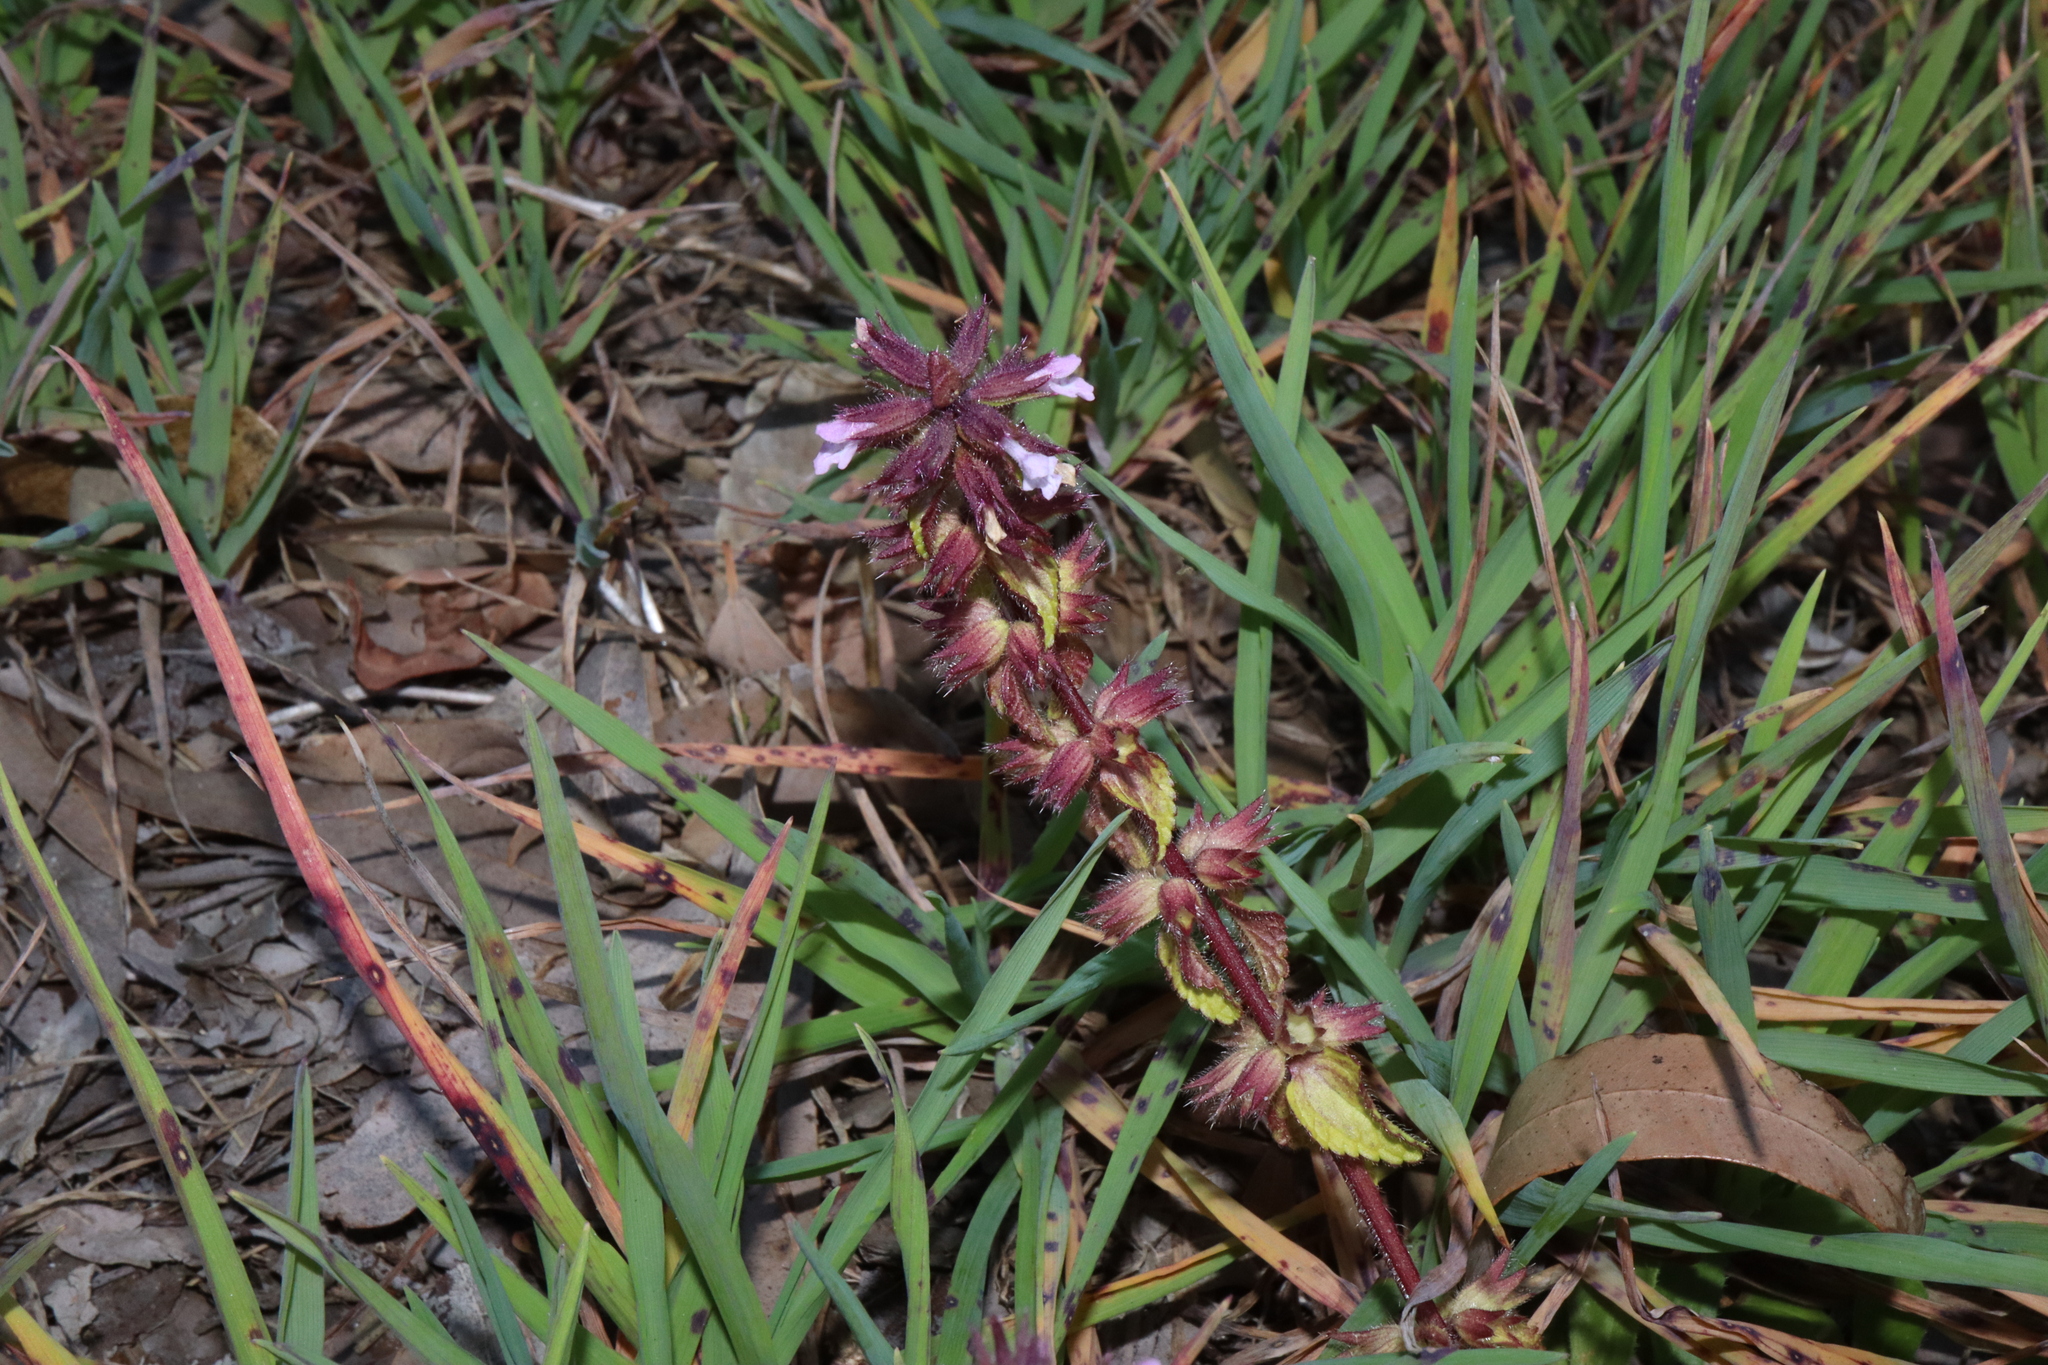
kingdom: Plantae
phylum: Tracheophyta
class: Magnoliopsida
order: Lamiales
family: Lamiaceae
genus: Stachys
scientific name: Stachys arvensis
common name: Field woundwort
